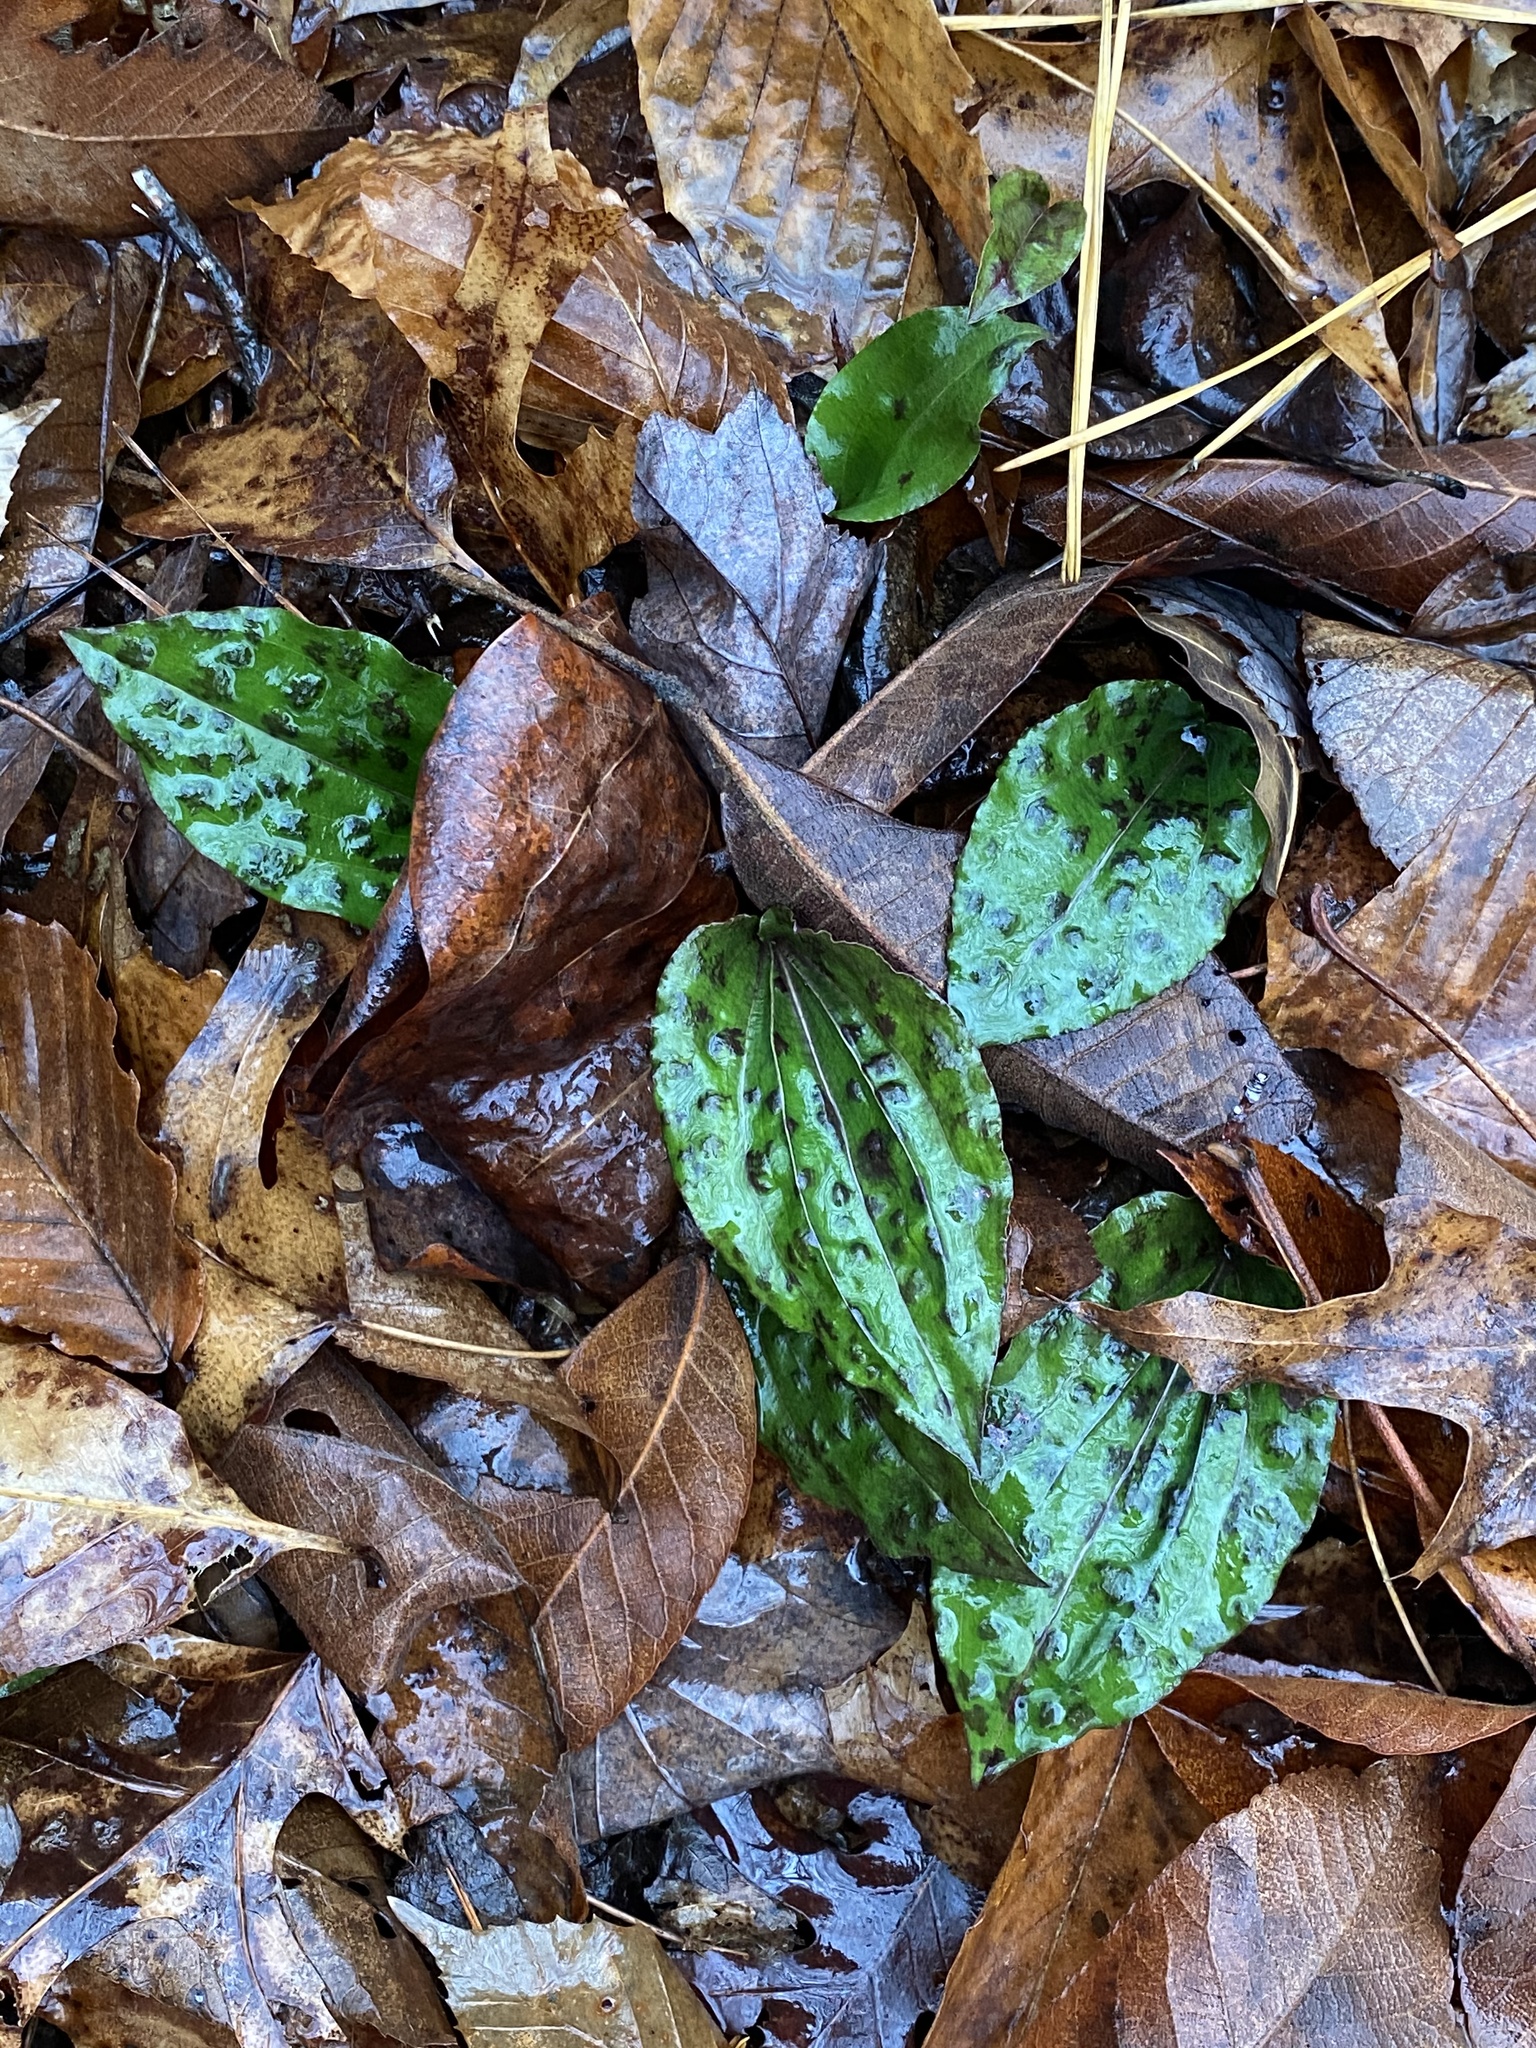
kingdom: Plantae
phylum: Tracheophyta
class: Liliopsida
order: Asparagales
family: Orchidaceae
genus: Tipularia
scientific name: Tipularia discolor
